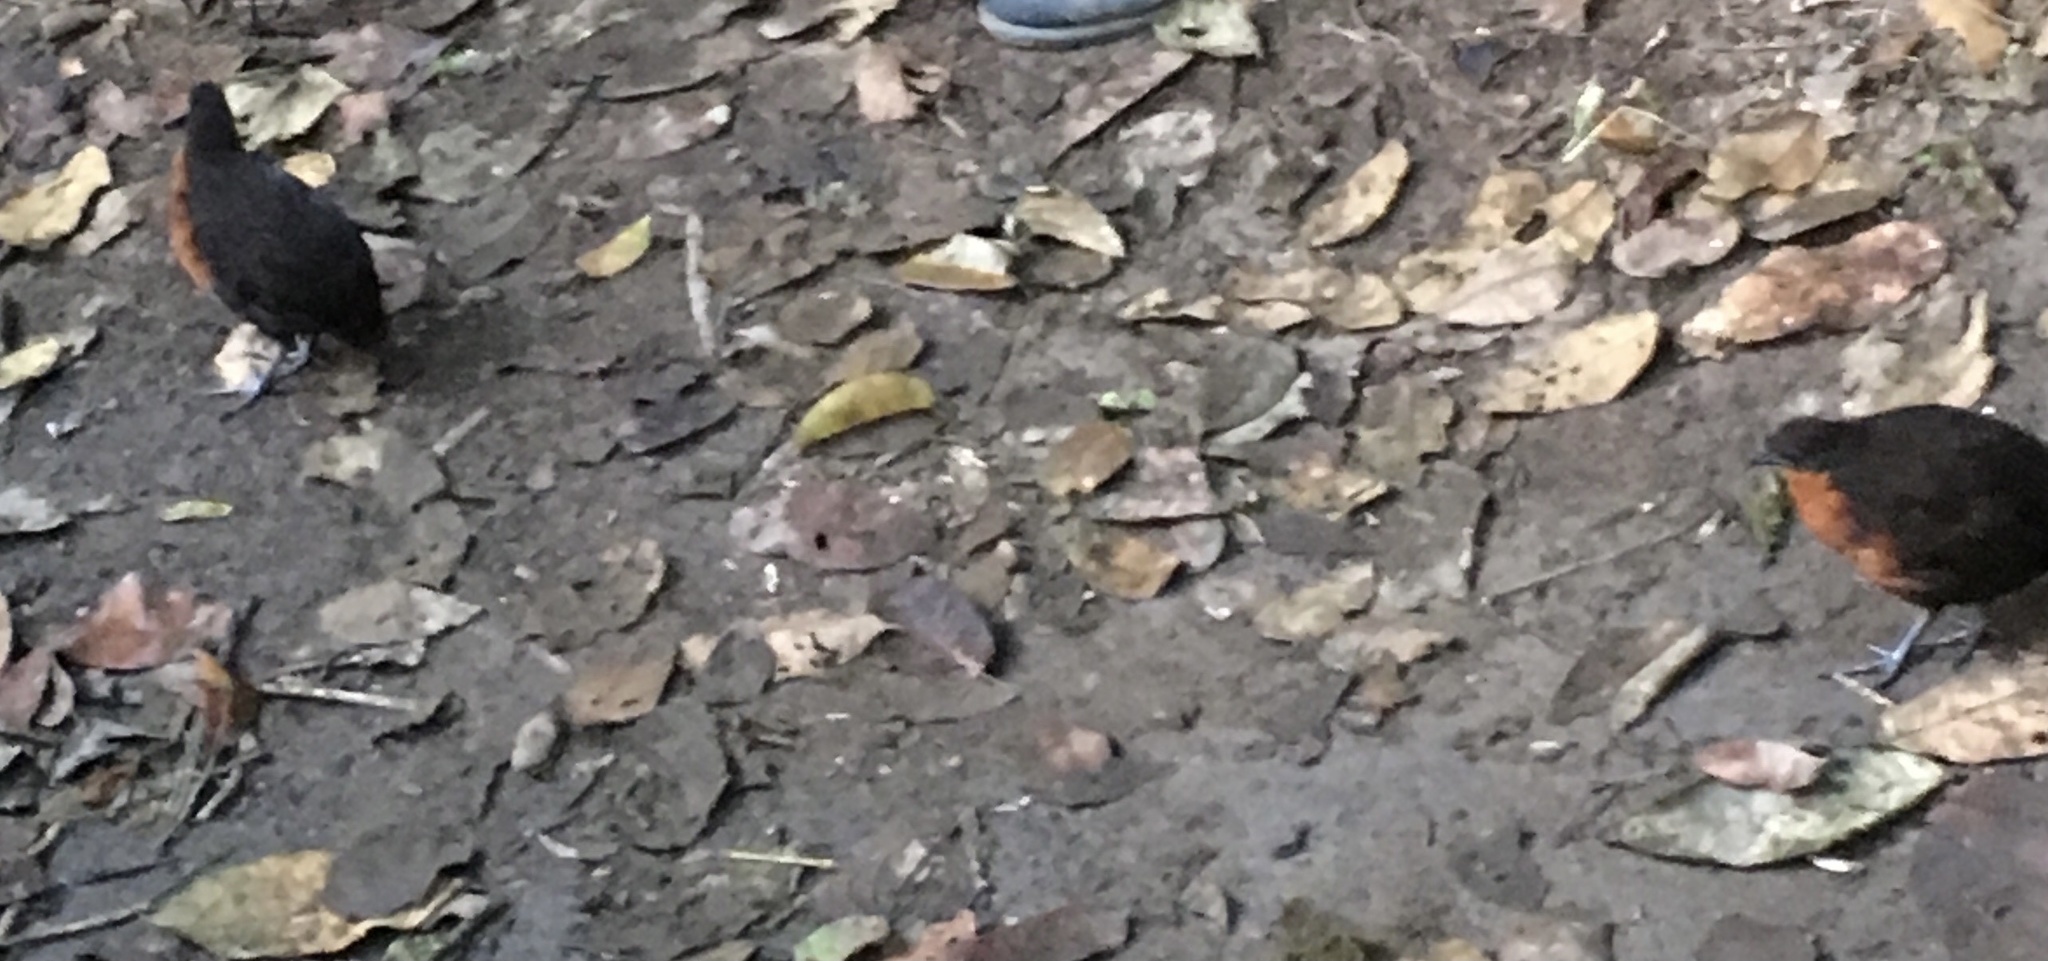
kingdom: Animalia
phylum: Chordata
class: Aves
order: Galliformes
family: Odontophoridae
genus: Odontophorus
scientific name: Odontophorus melanonotus
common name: Dark-backed wood-quail
